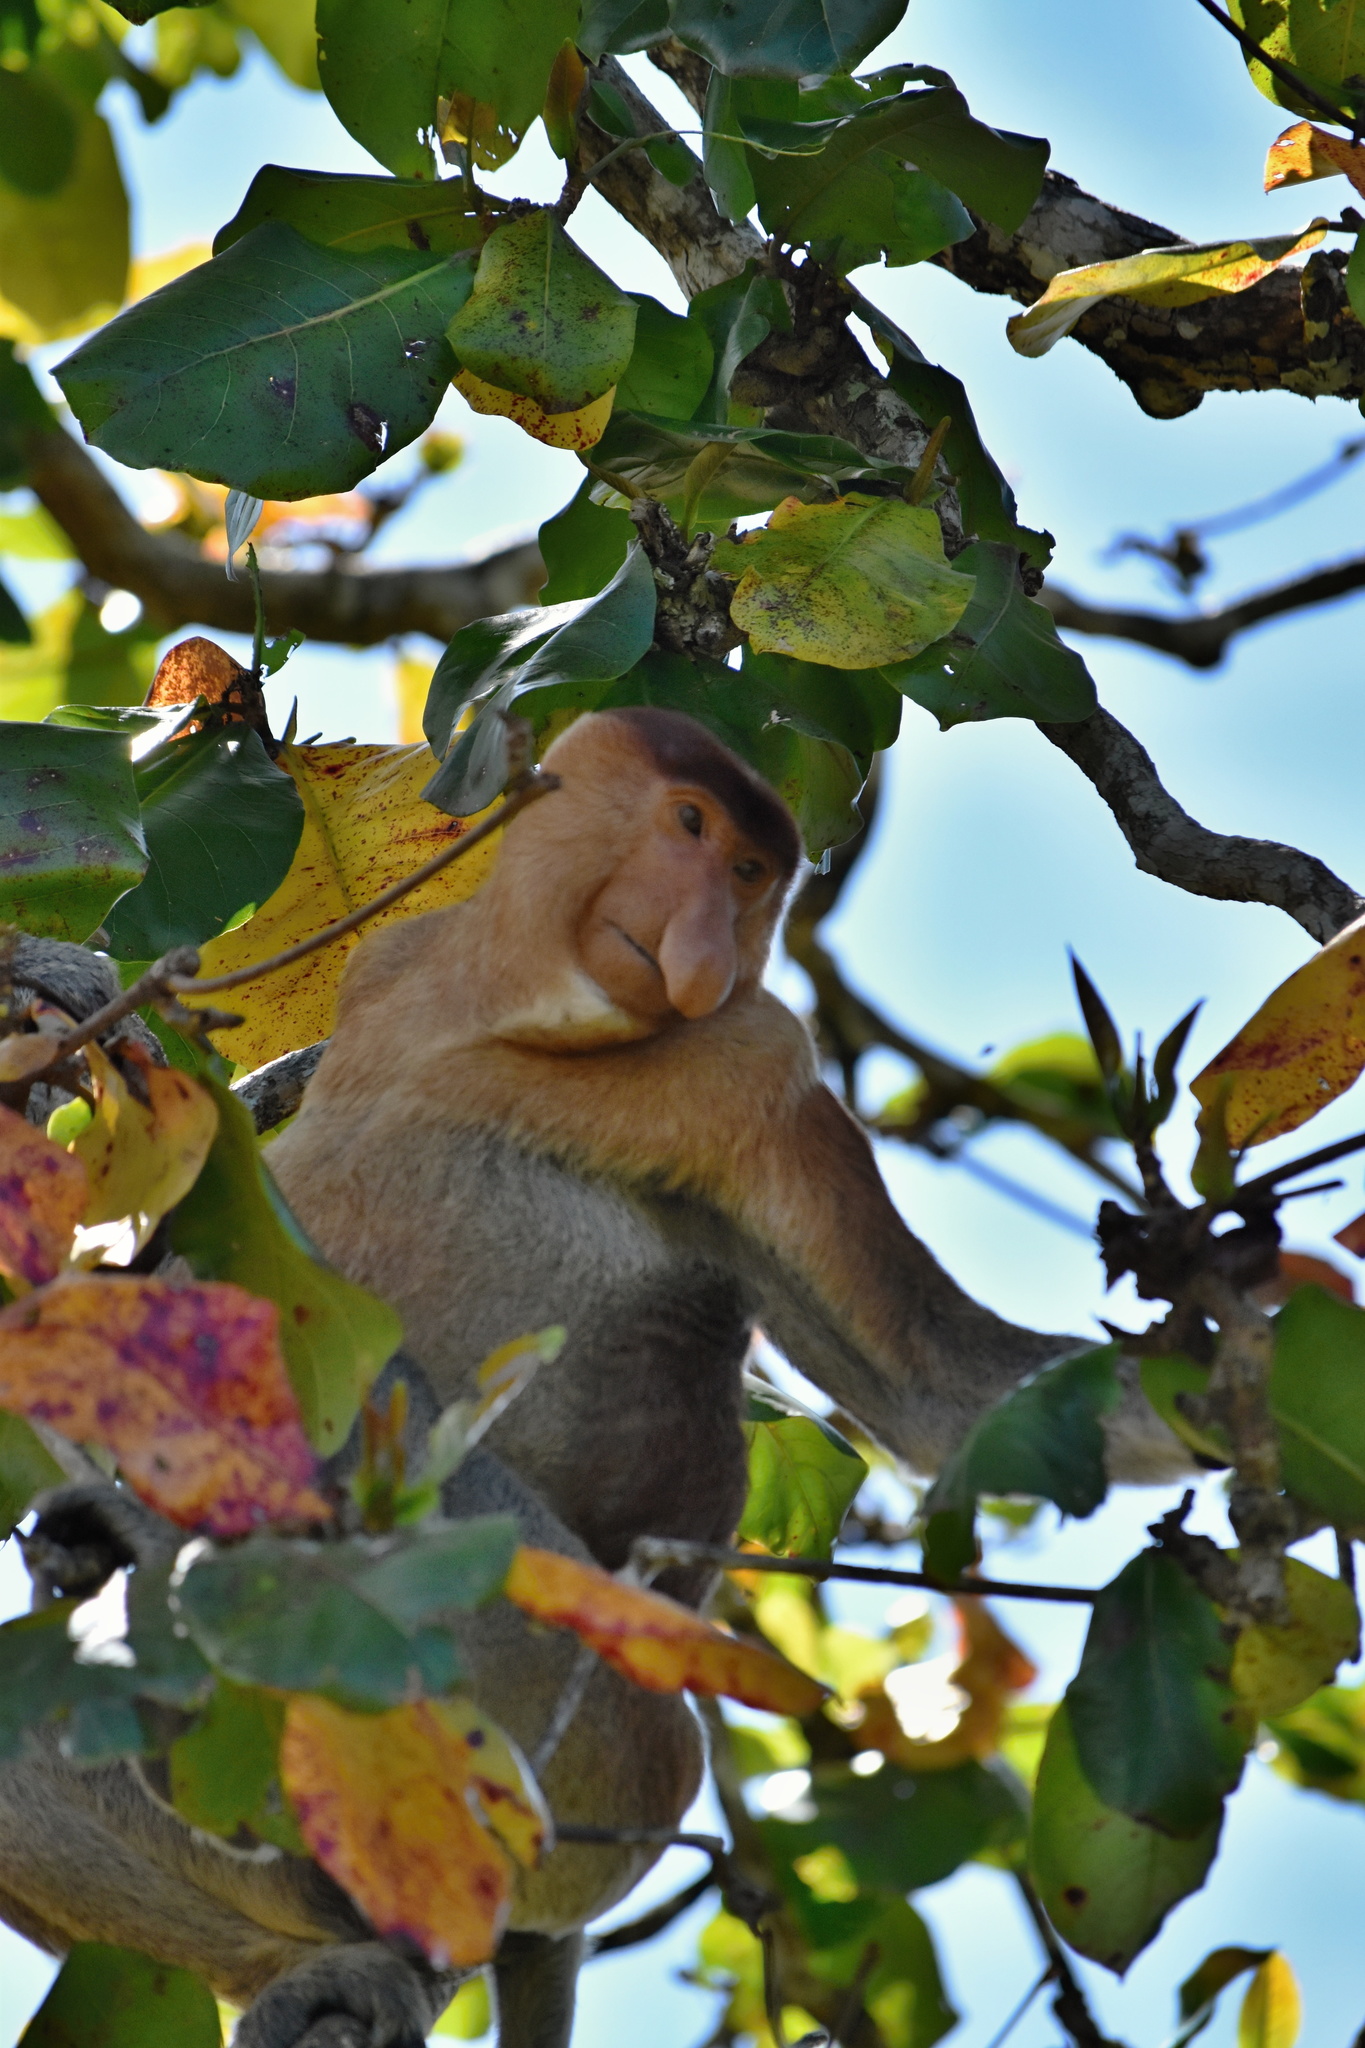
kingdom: Animalia
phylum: Chordata
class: Mammalia
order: Primates
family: Cercopithecidae
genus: Nasalis
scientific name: Nasalis larvatus
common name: Proboscis monkey
